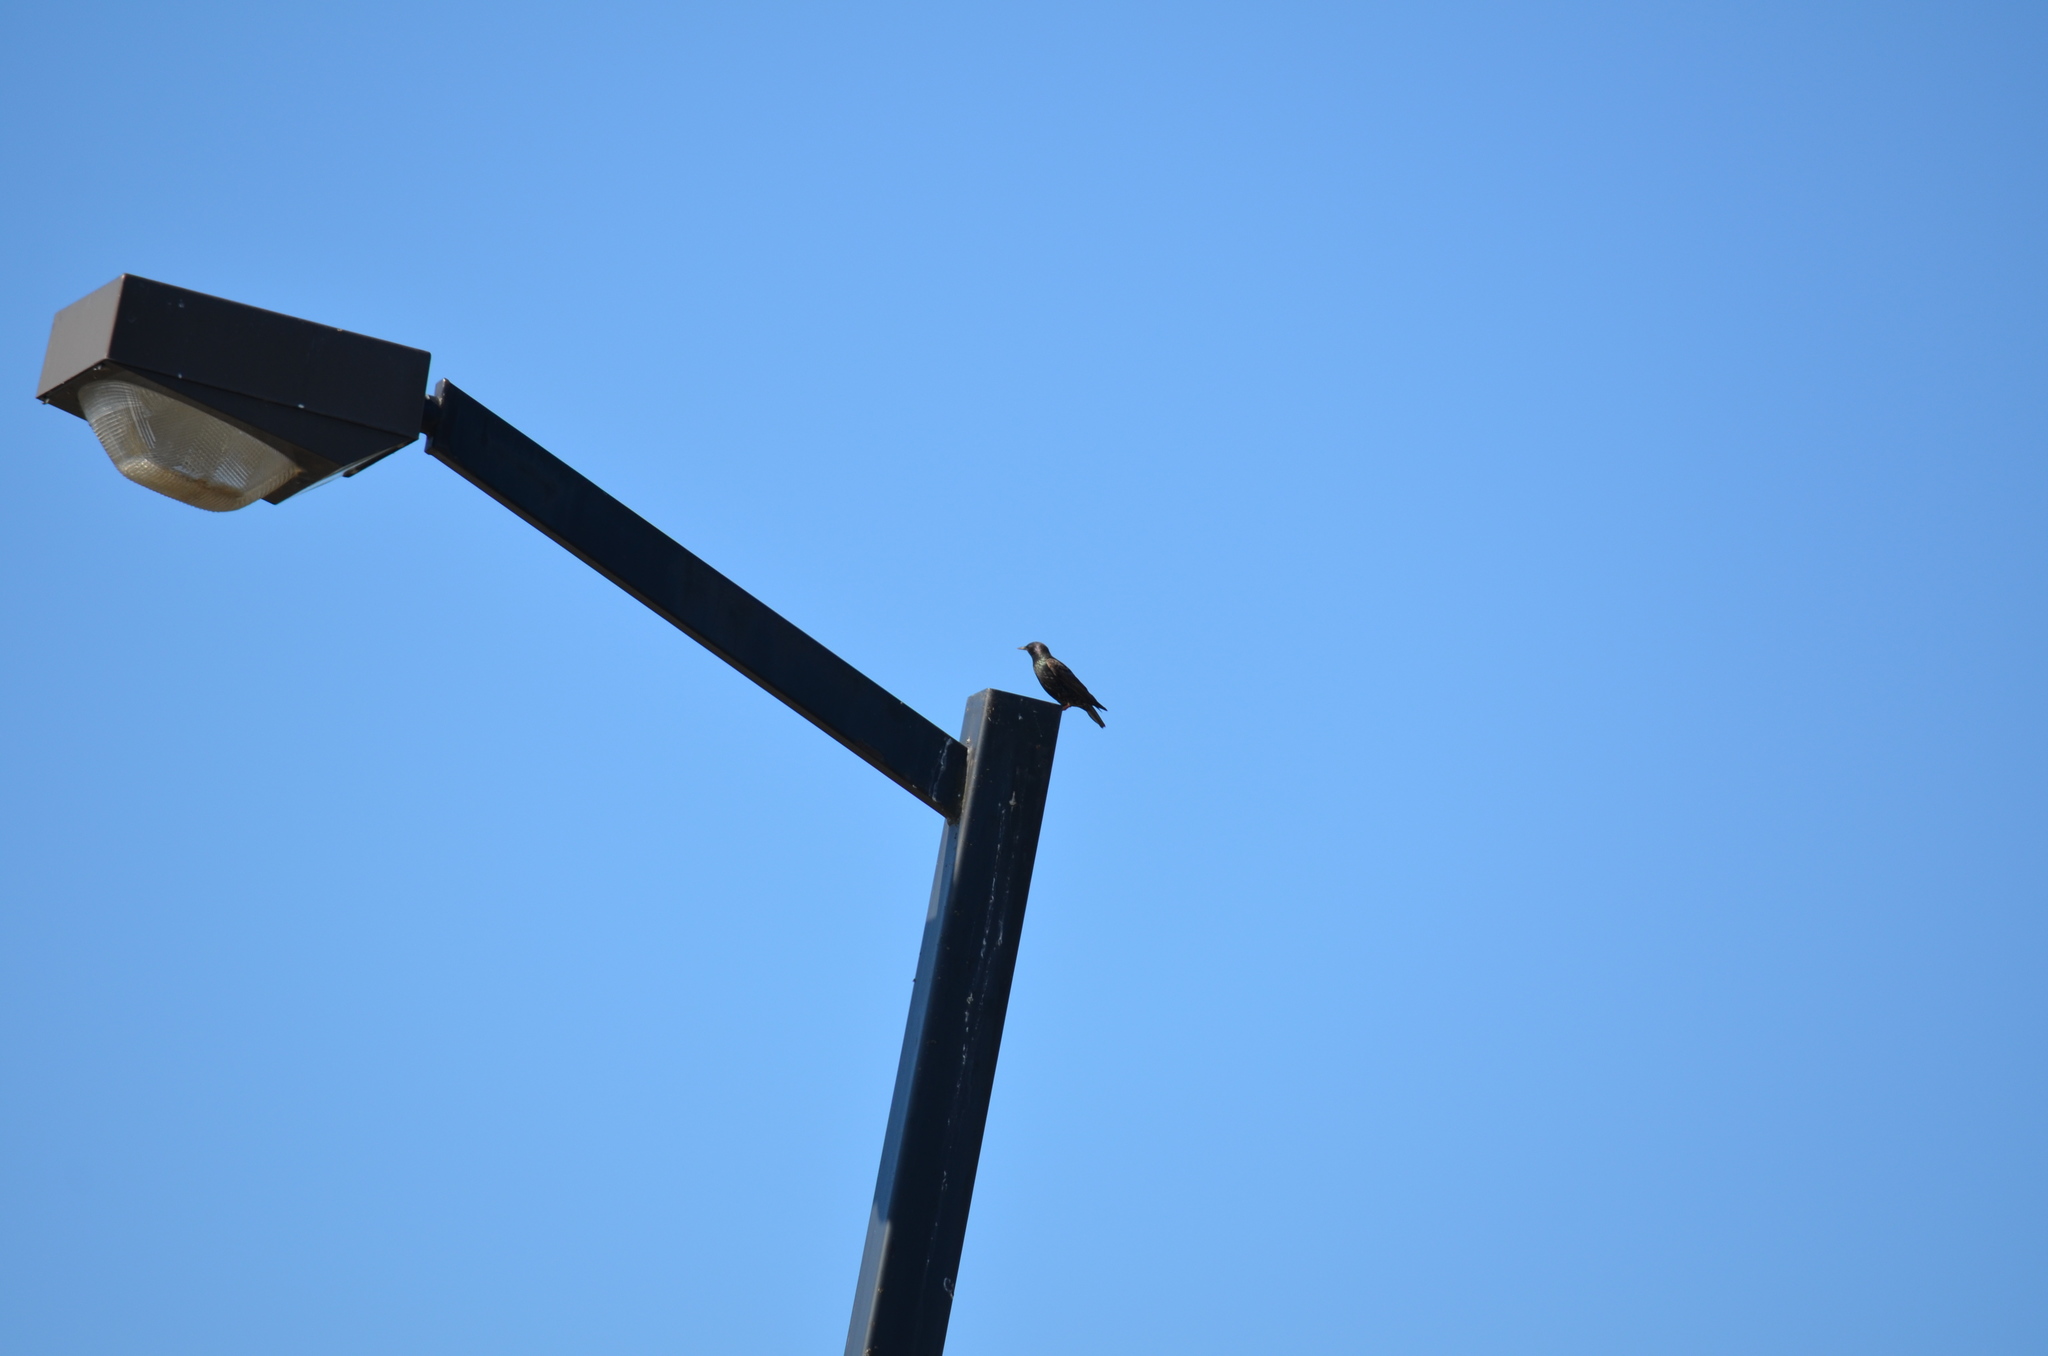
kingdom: Animalia
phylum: Chordata
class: Aves
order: Passeriformes
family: Sturnidae
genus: Sturnus
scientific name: Sturnus vulgaris
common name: Common starling
